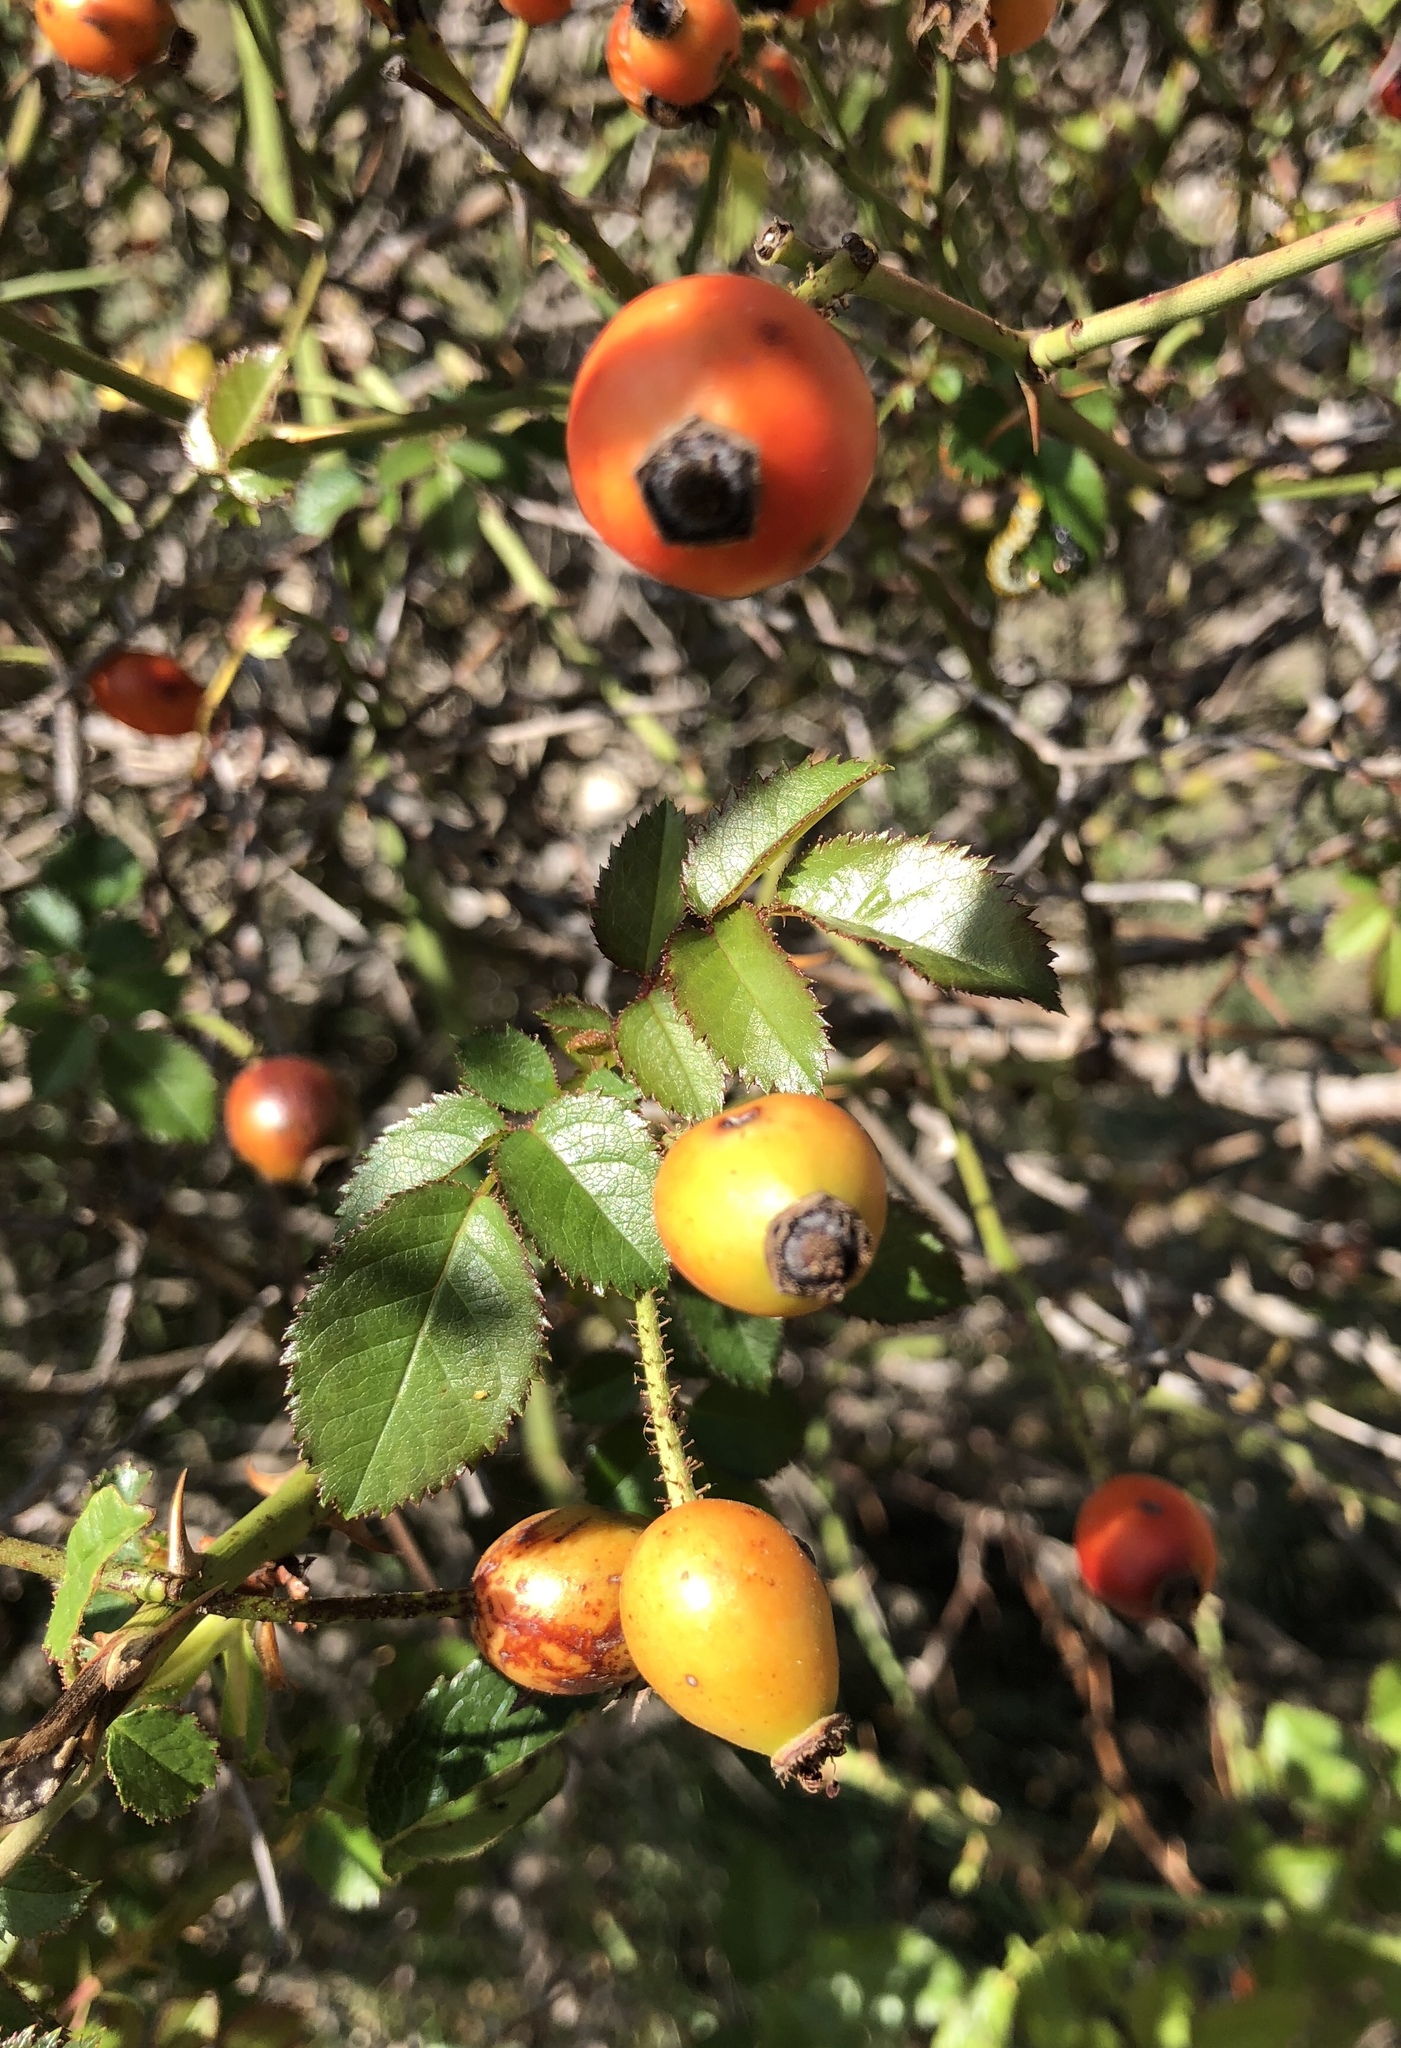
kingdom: Plantae
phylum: Tracheophyta
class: Magnoliopsida
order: Rosales
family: Rosaceae
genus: Rosa
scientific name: Rosa canina
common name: Dog rose
